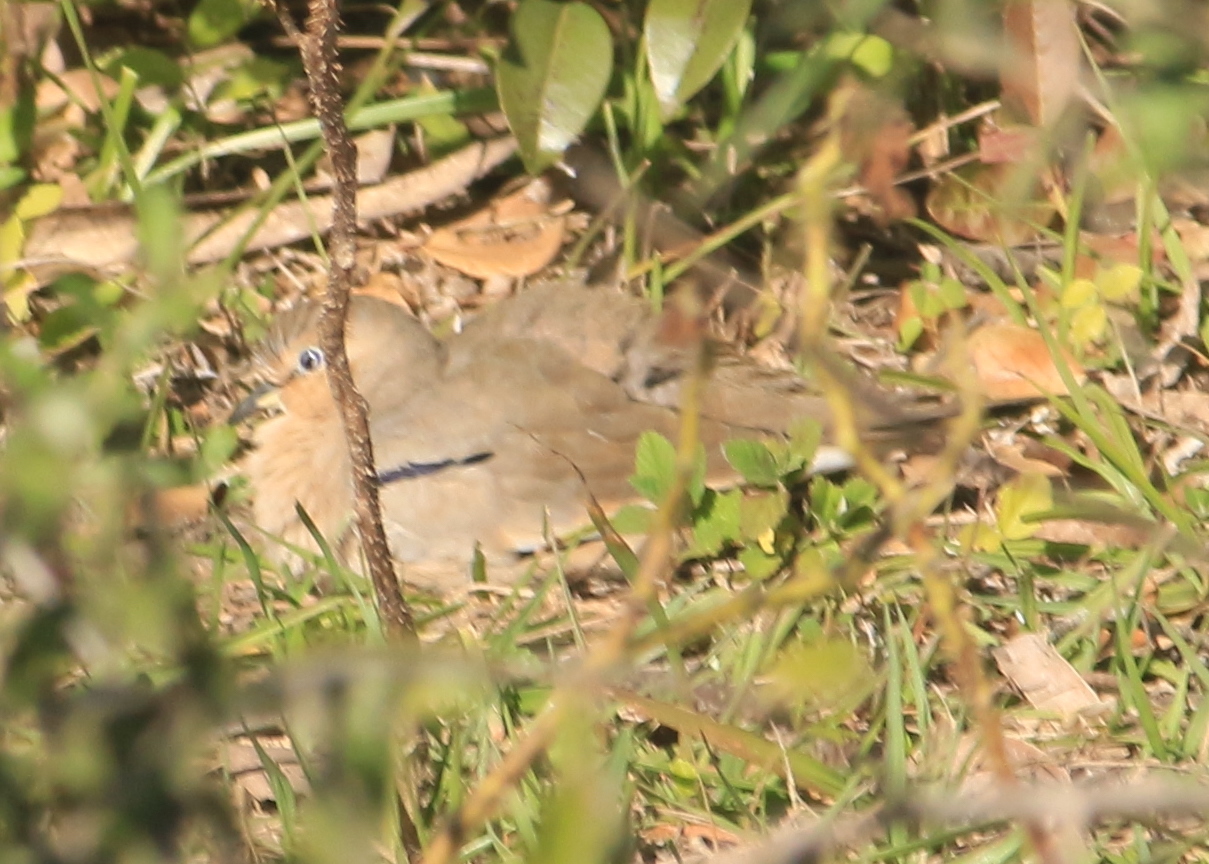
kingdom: Animalia
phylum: Chordata
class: Aves
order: Columbiformes
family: Columbidae
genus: Columbina
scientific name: Columbina picui
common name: Picui ground dove
